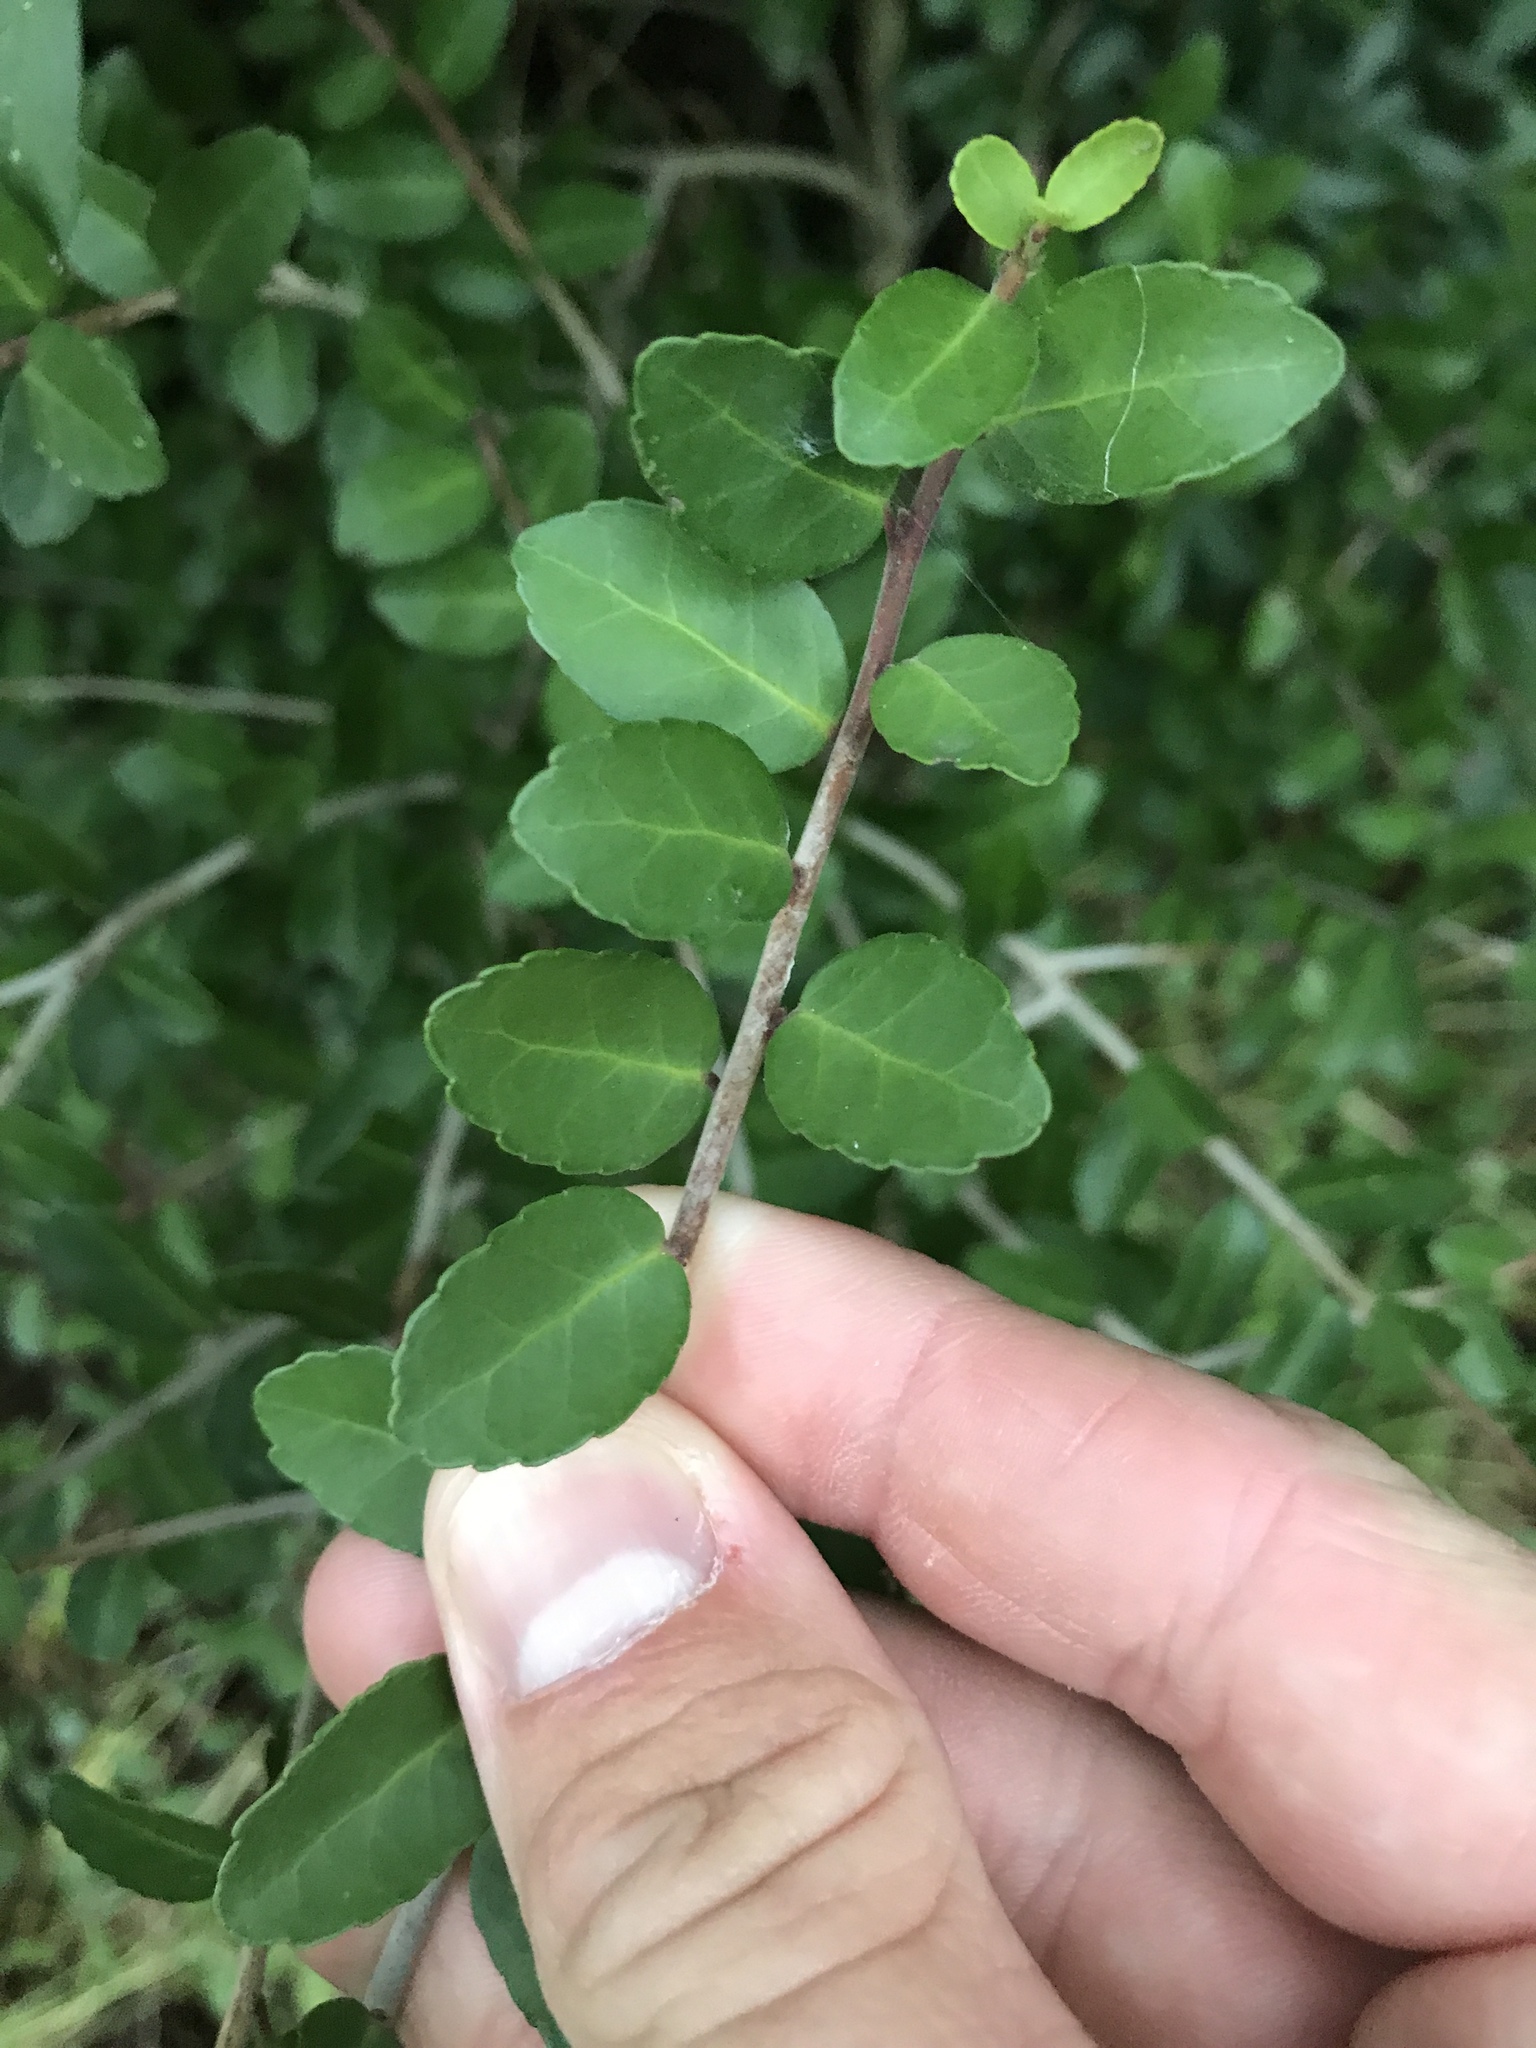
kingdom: Plantae
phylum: Tracheophyta
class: Magnoliopsida
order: Aquifoliales
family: Aquifoliaceae
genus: Ilex
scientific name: Ilex vomitoria
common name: Yaupon holly
